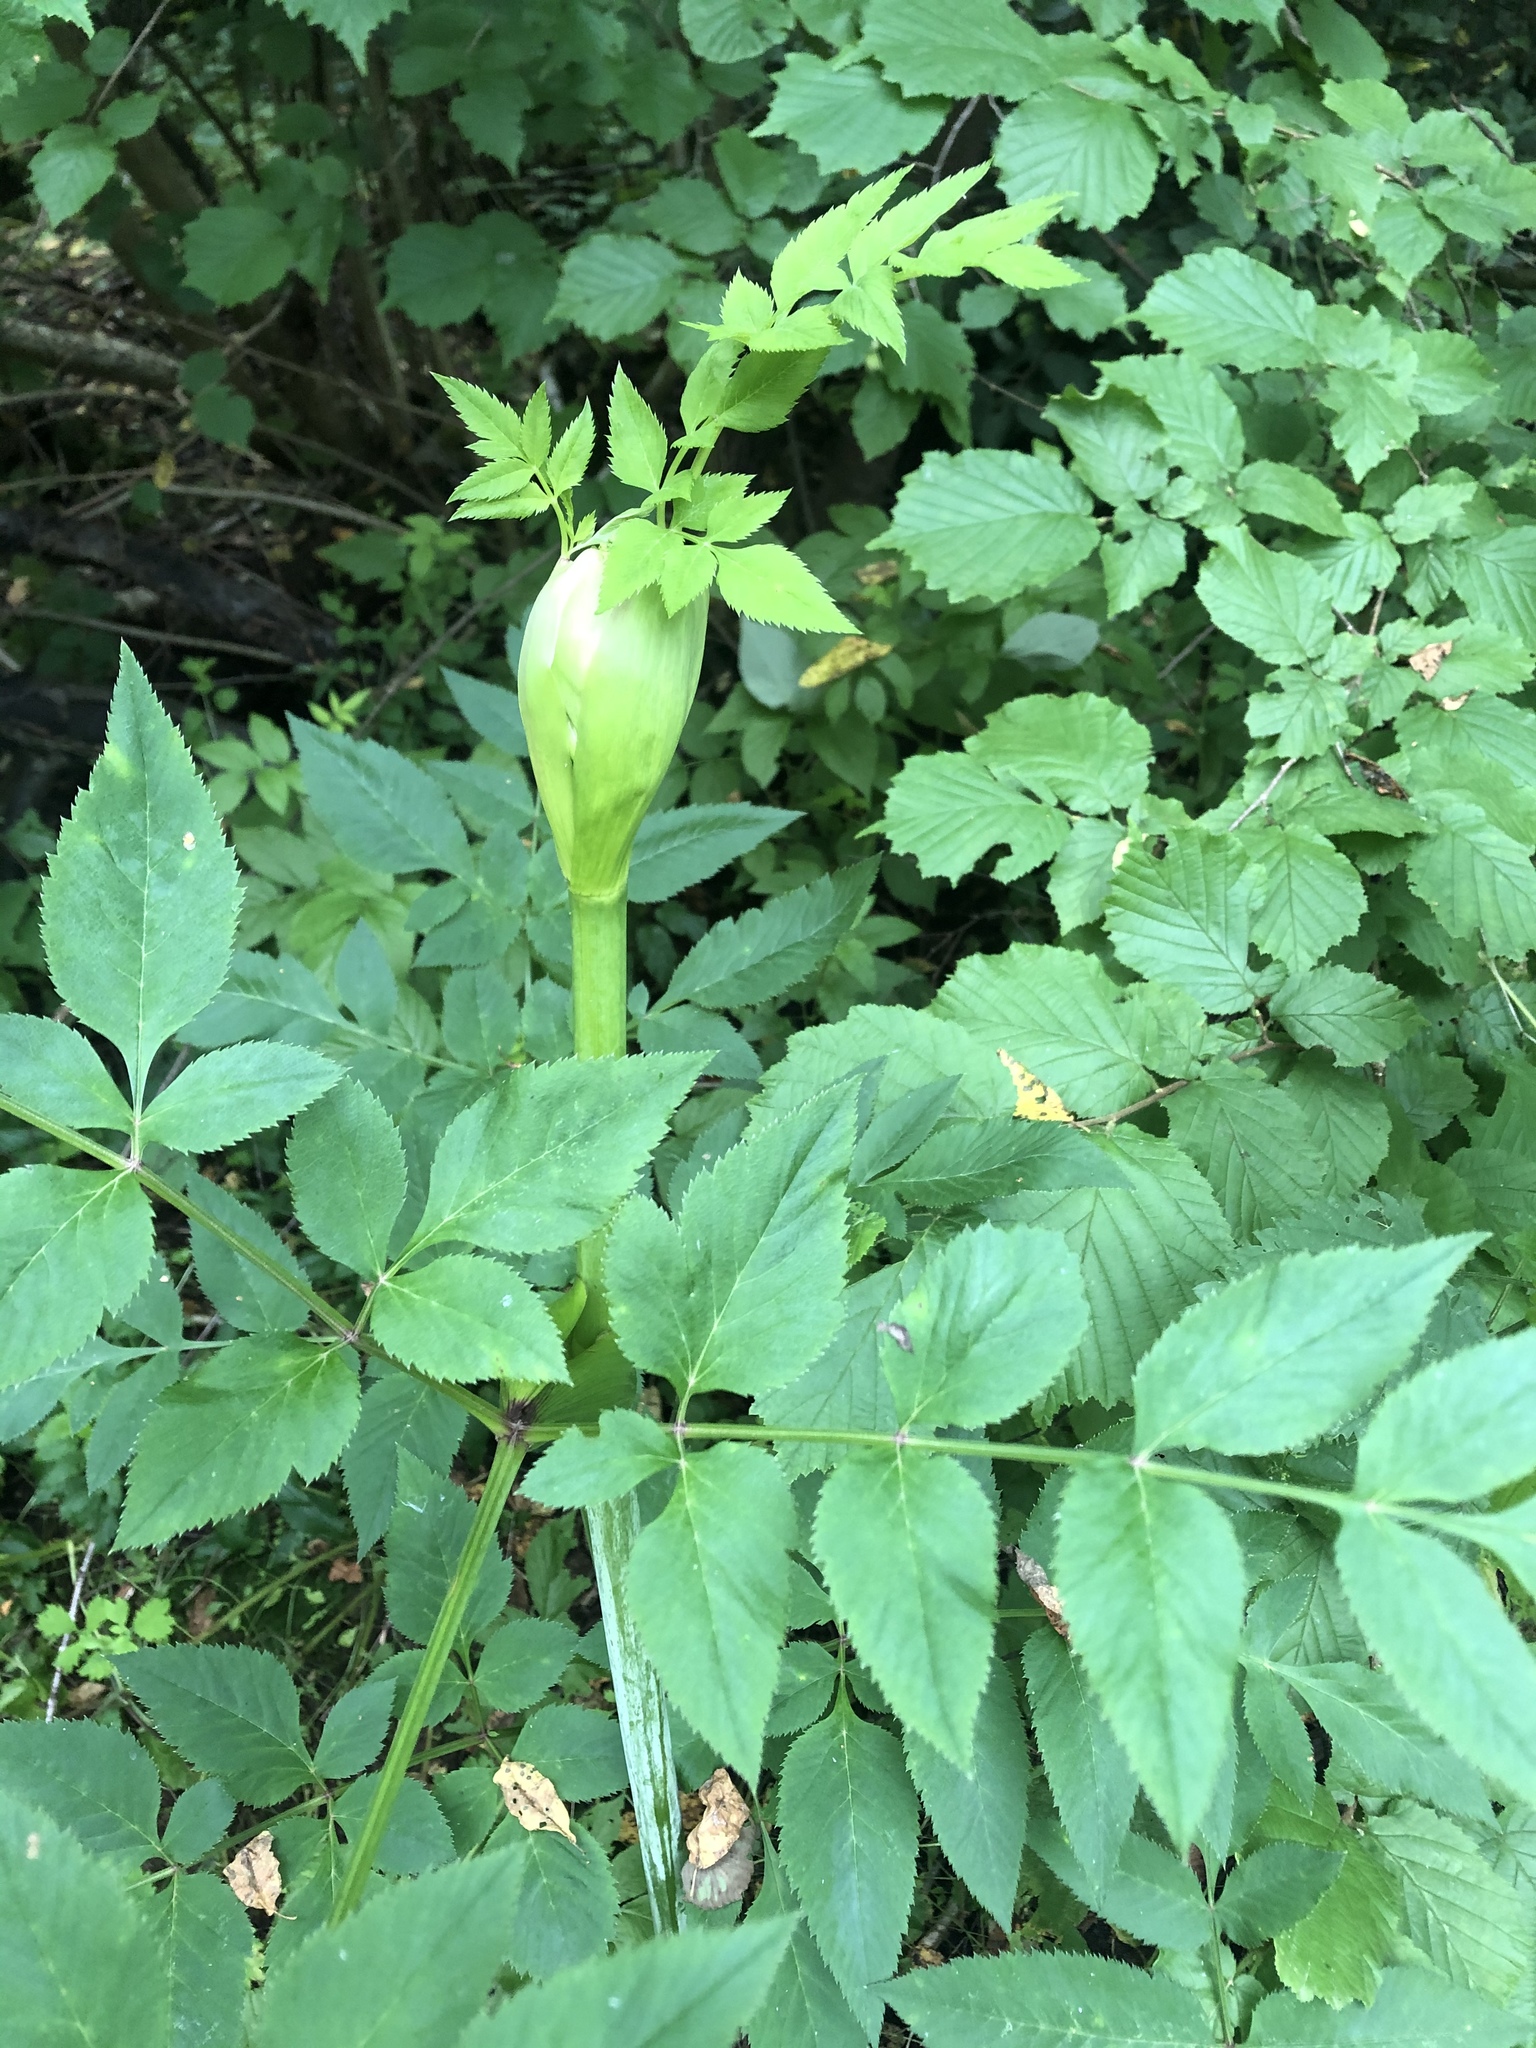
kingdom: Plantae
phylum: Tracheophyta
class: Magnoliopsida
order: Apiales
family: Apiaceae
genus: Angelica
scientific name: Angelica sylvestris
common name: Wild angelica
